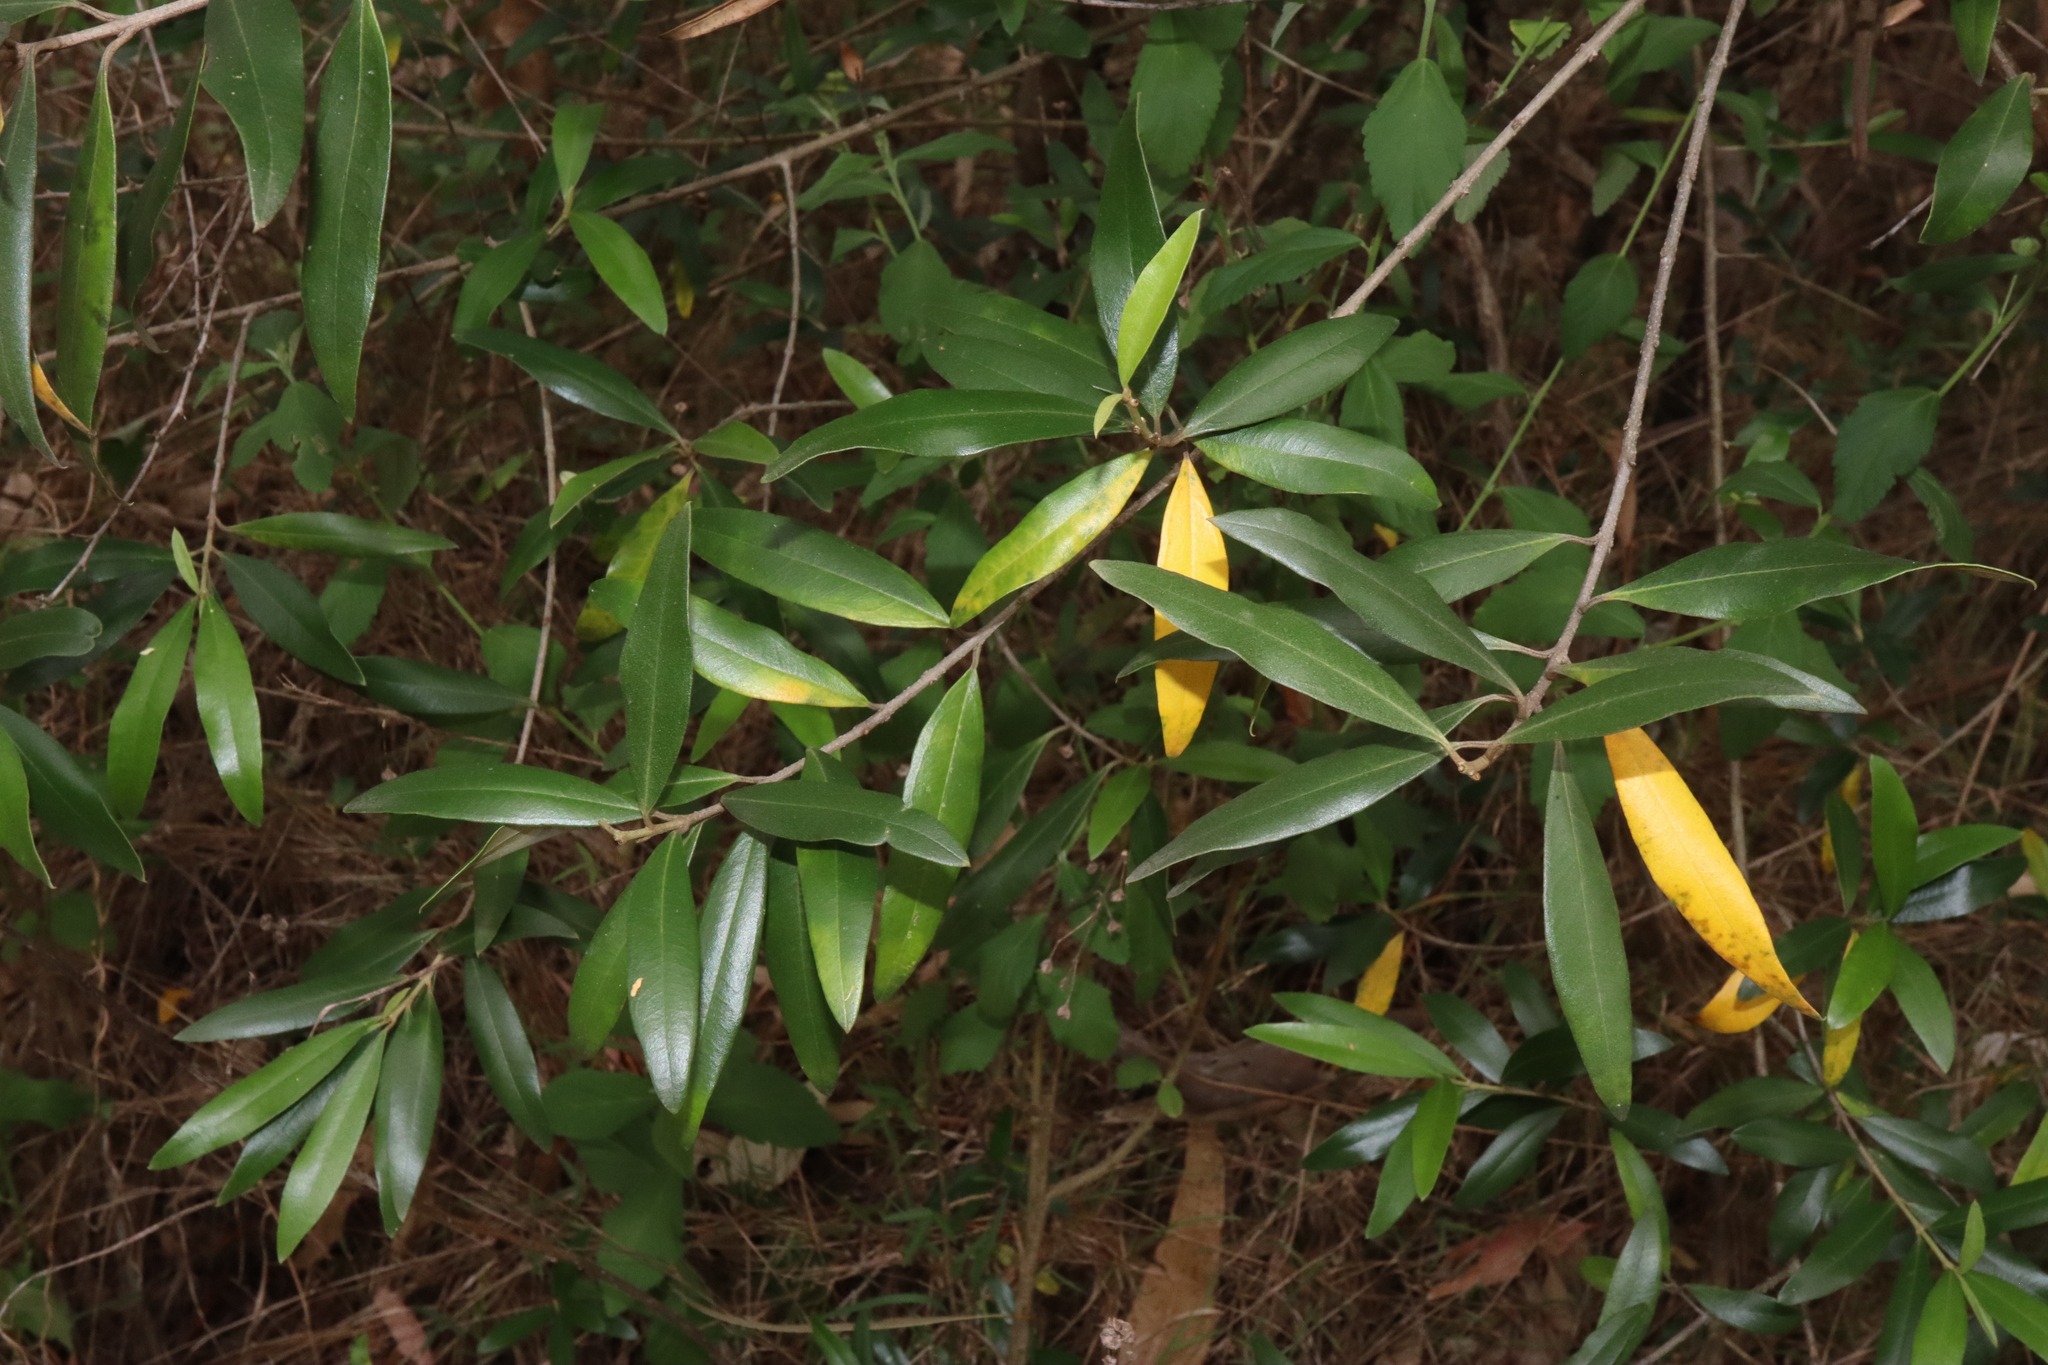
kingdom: Plantae
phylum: Tracheophyta
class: Magnoliopsida
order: Lamiales
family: Oleaceae
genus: Olea
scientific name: Olea europaea
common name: Olive
